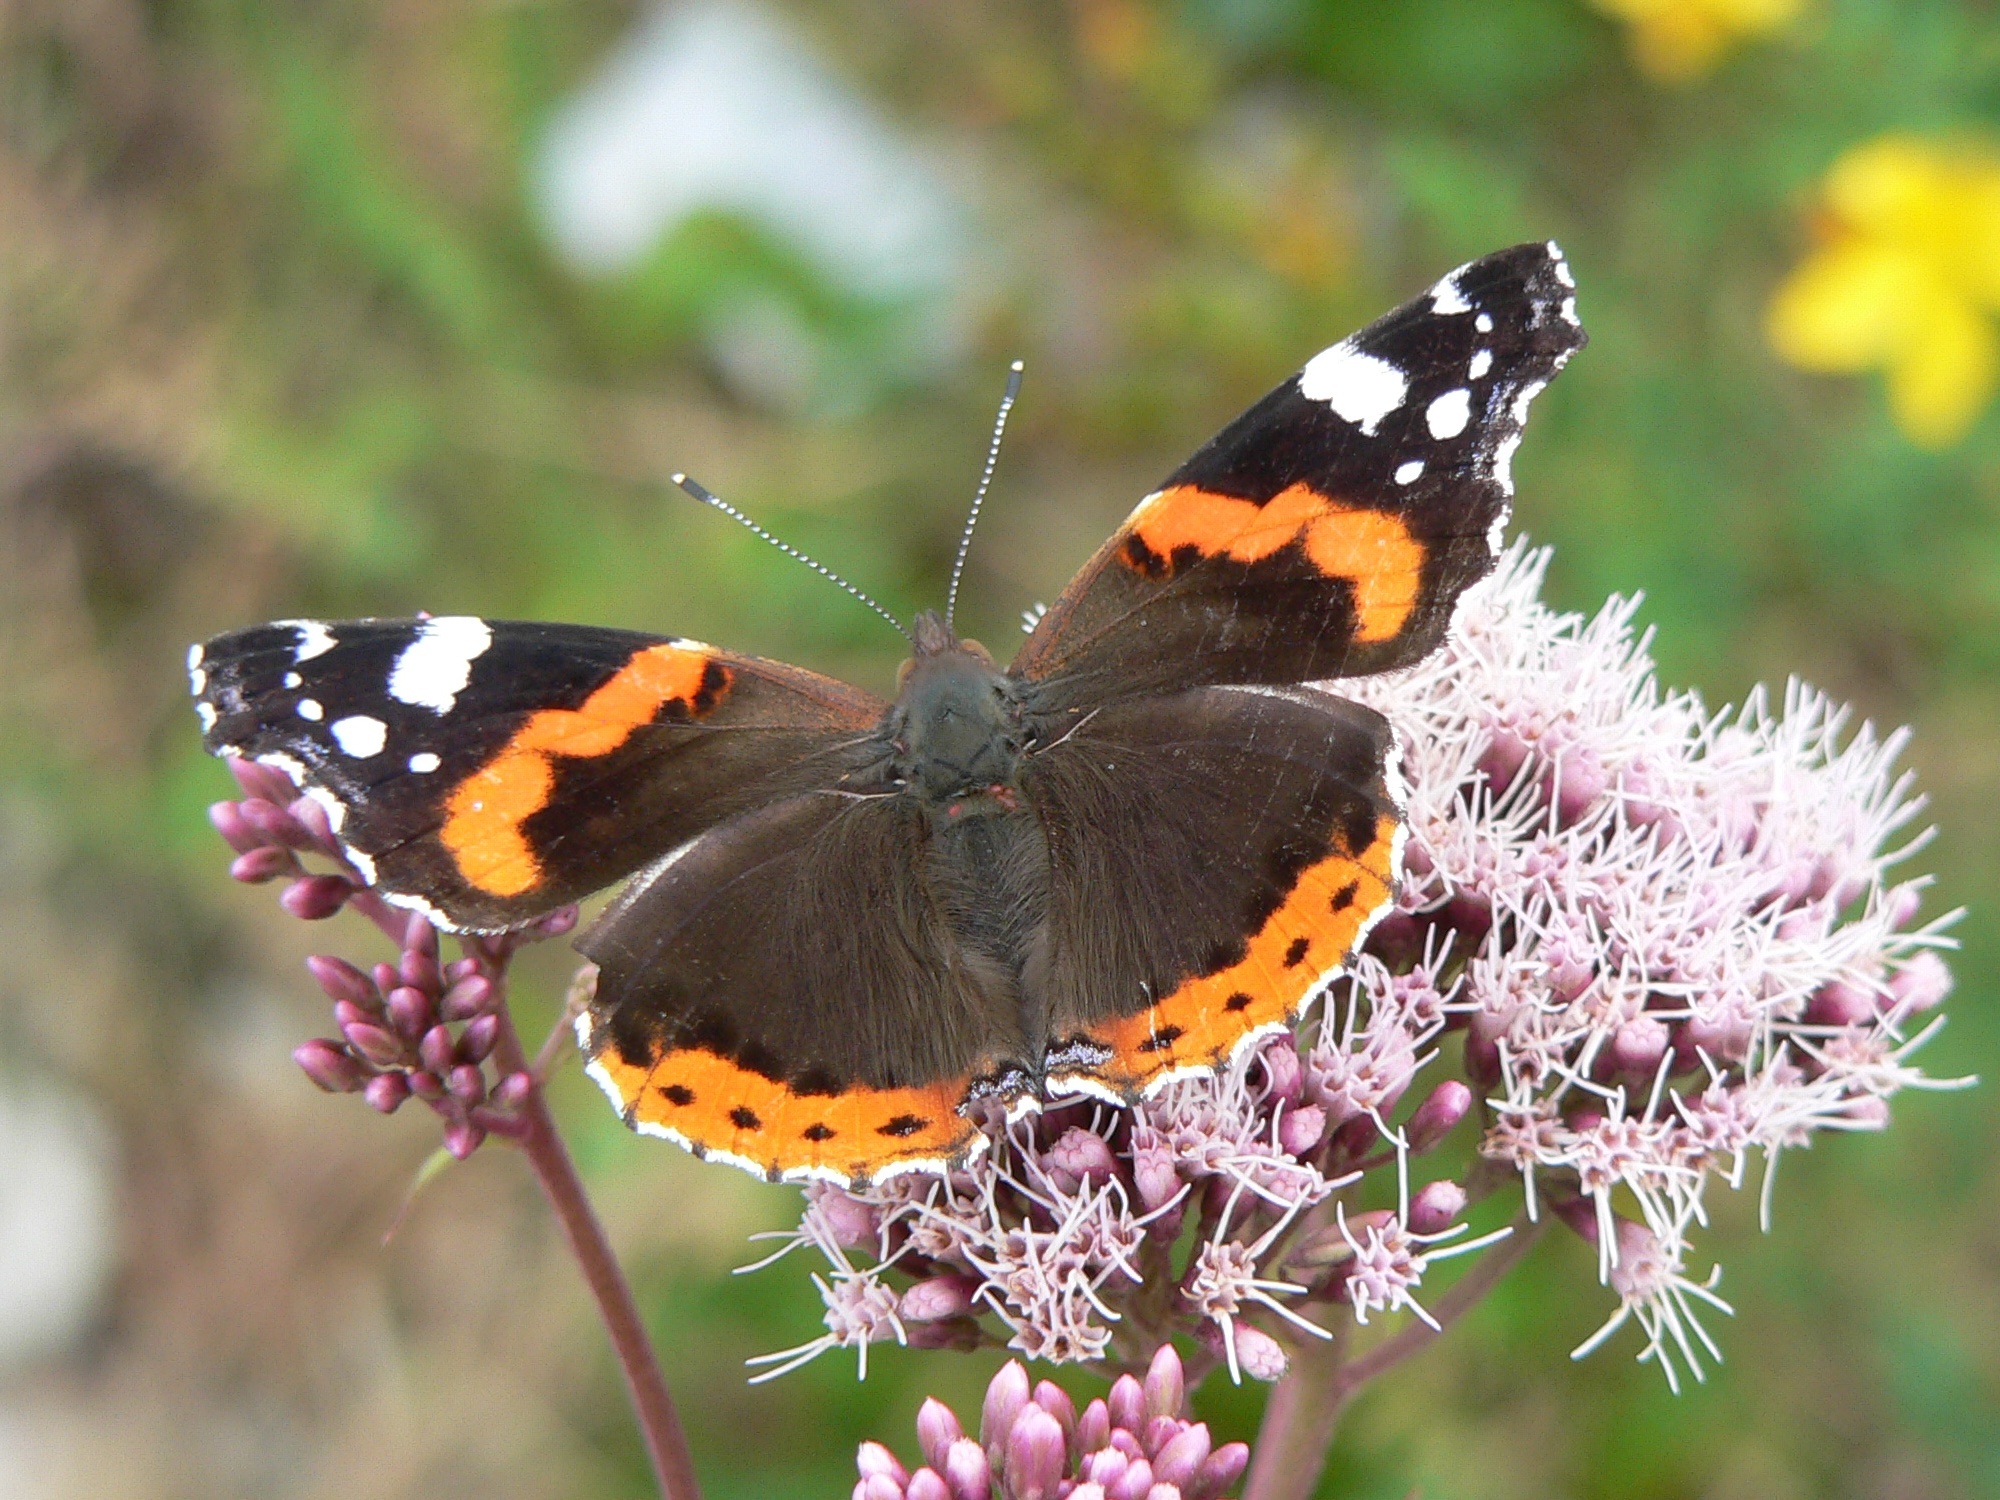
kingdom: Animalia
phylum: Arthropoda
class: Insecta
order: Lepidoptera
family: Nymphalidae
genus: Vanessa
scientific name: Vanessa atalanta
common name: Red admiral
